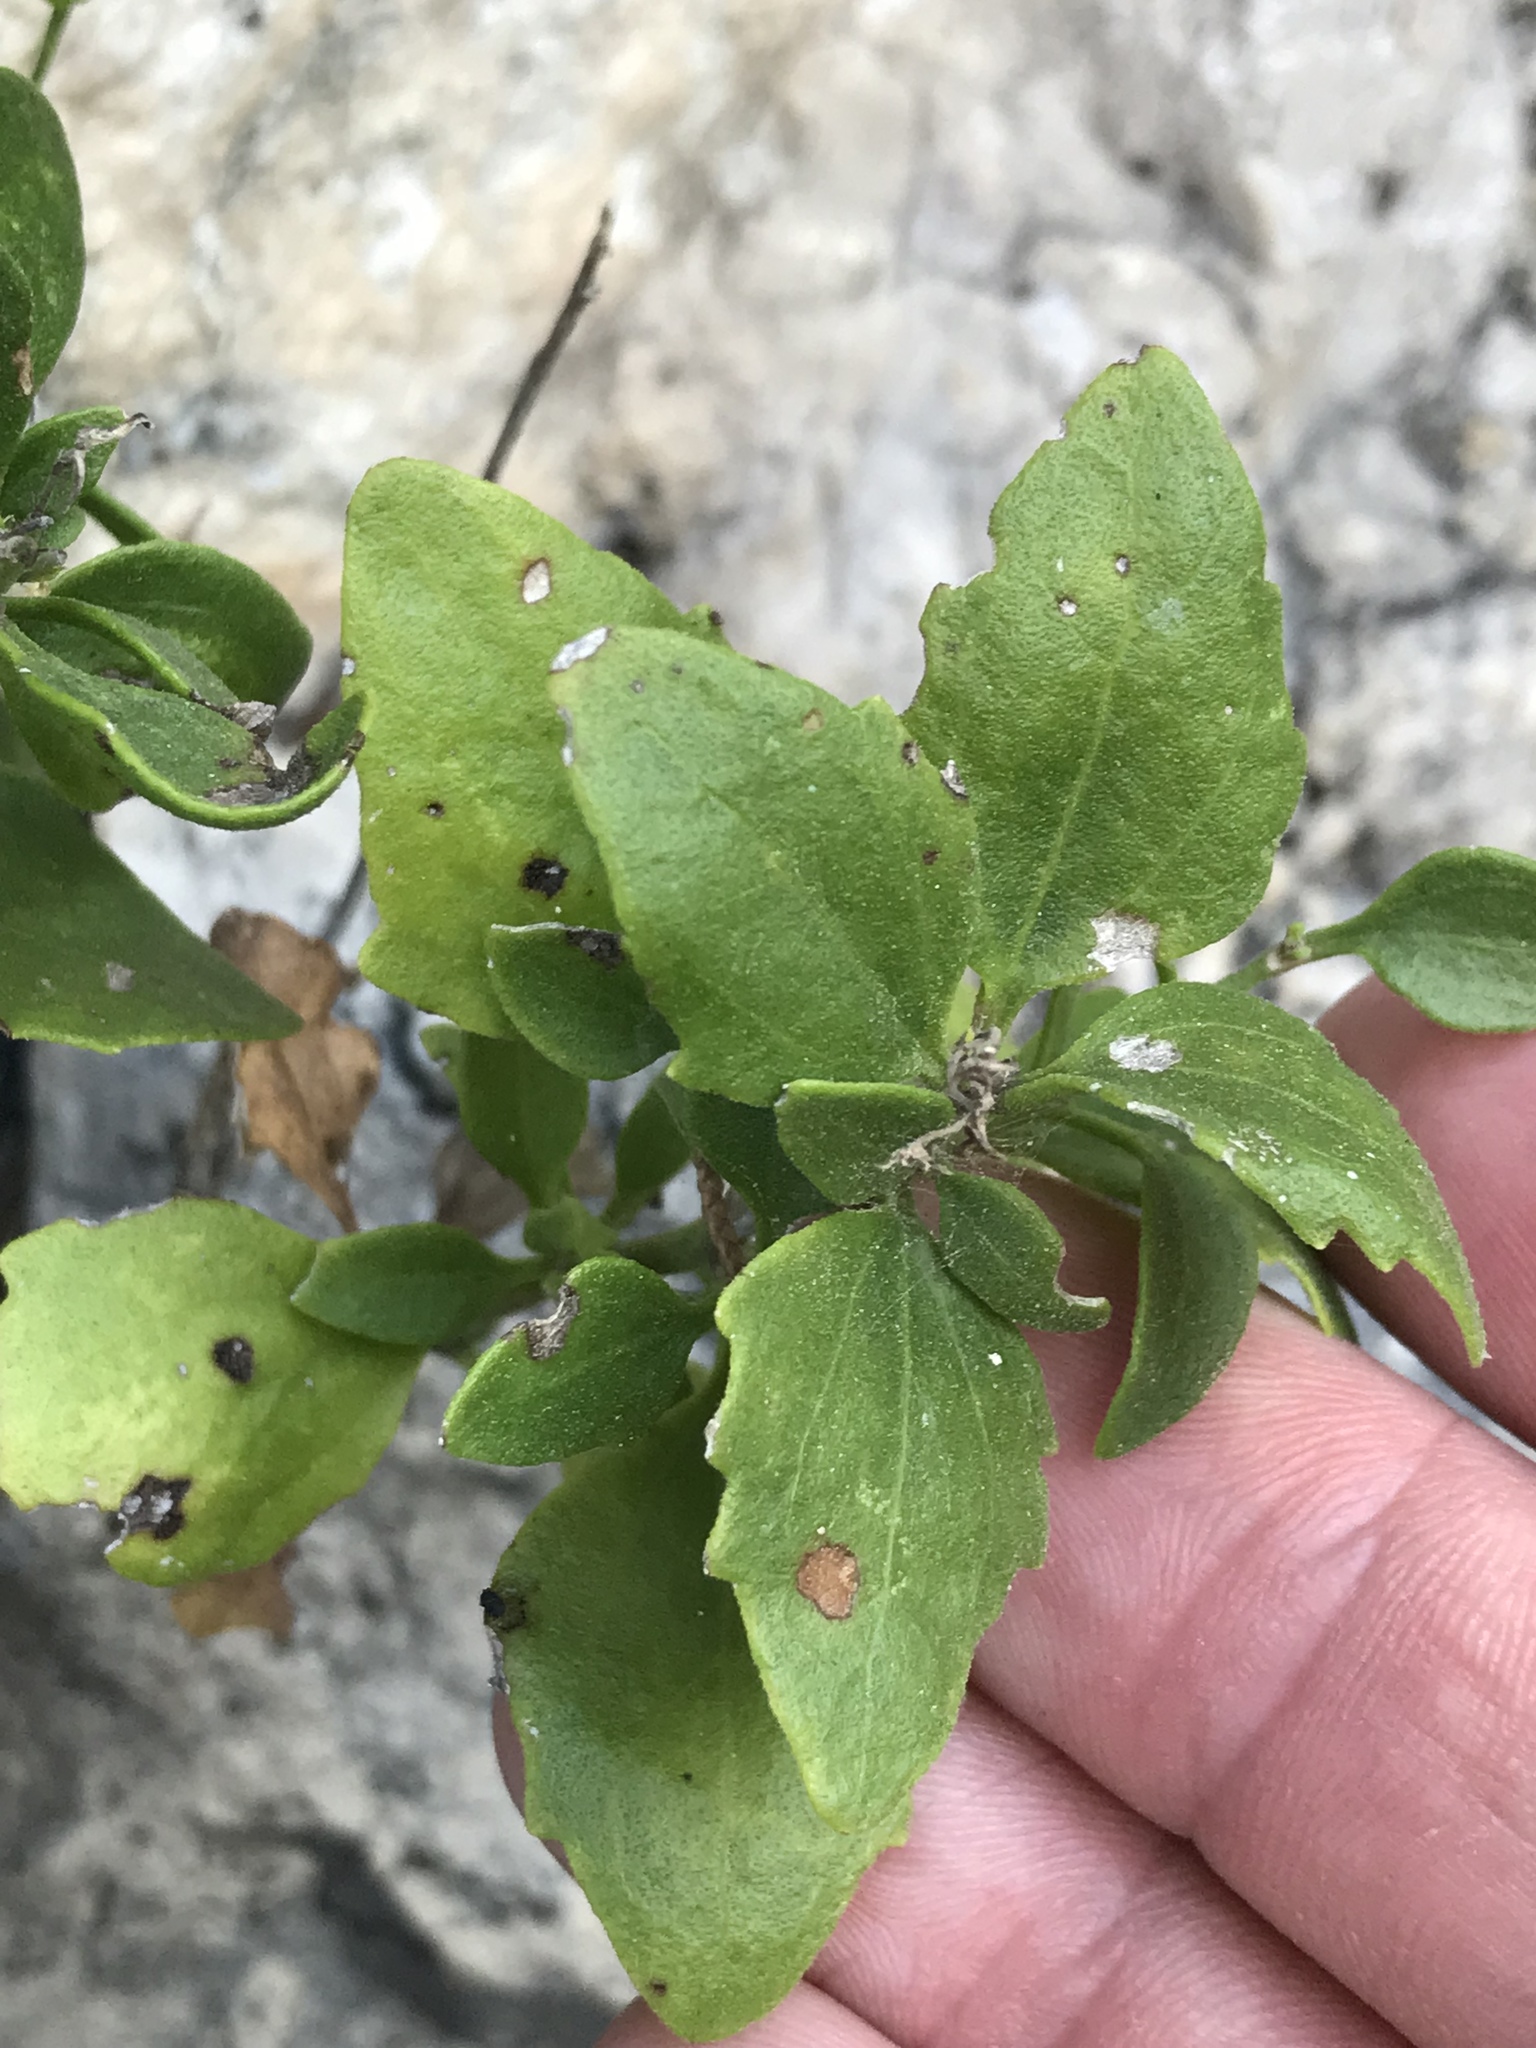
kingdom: Plantae
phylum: Tracheophyta
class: Magnoliopsida
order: Asterales
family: Asteraceae
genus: Laphamia
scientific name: Laphamia lindheimeri
